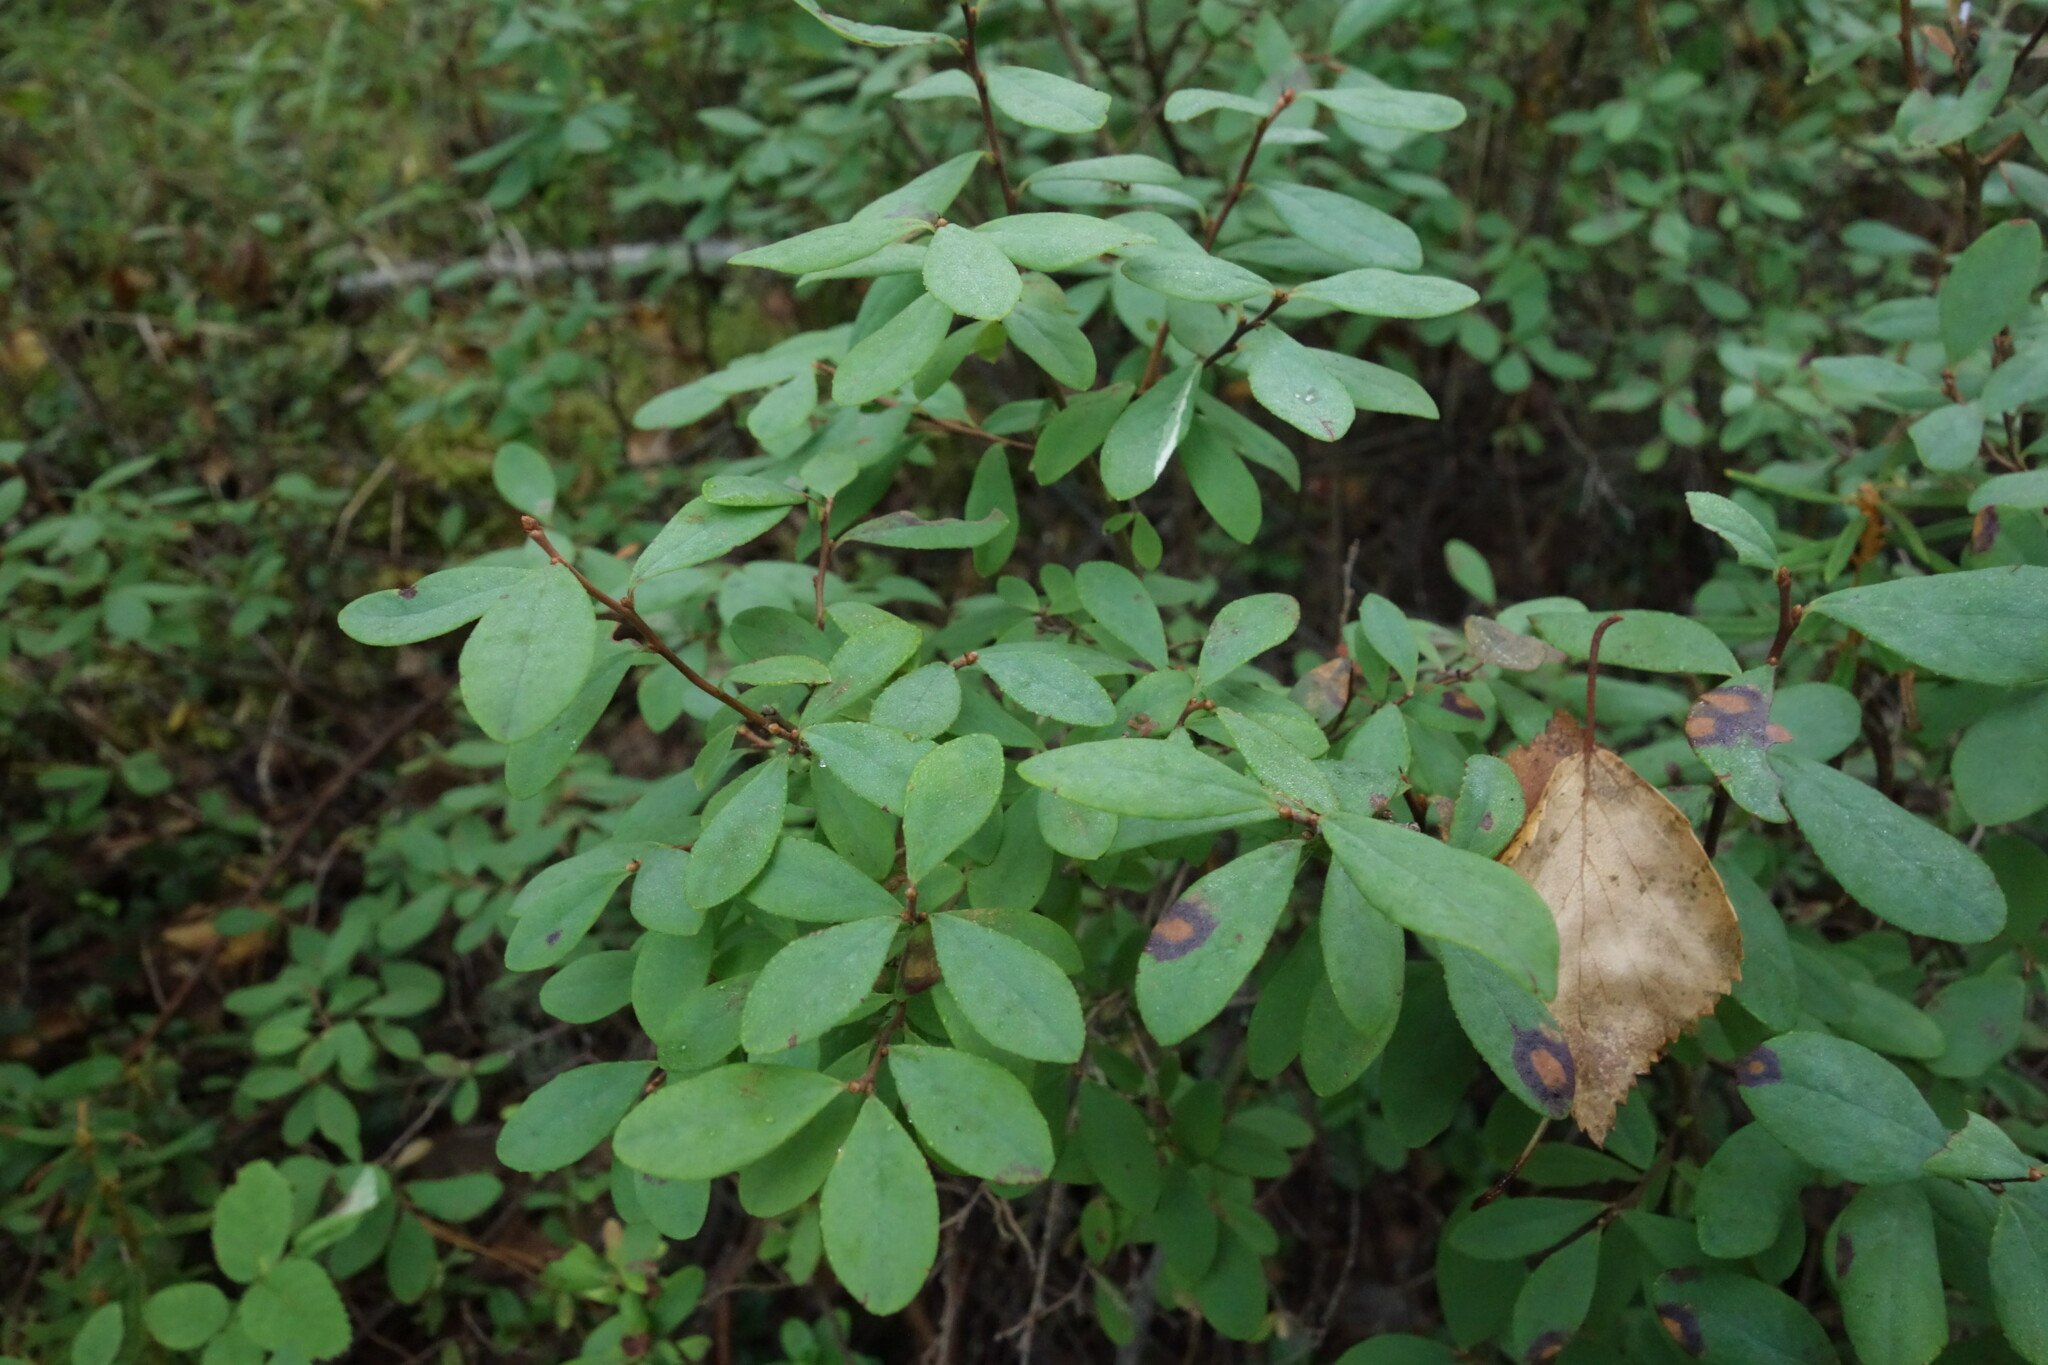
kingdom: Plantae
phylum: Tracheophyta
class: Magnoliopsida
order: Ericales
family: Ericaceae
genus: Vaccinium
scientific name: Vaccinium uliginosum
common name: Bog bilberry
